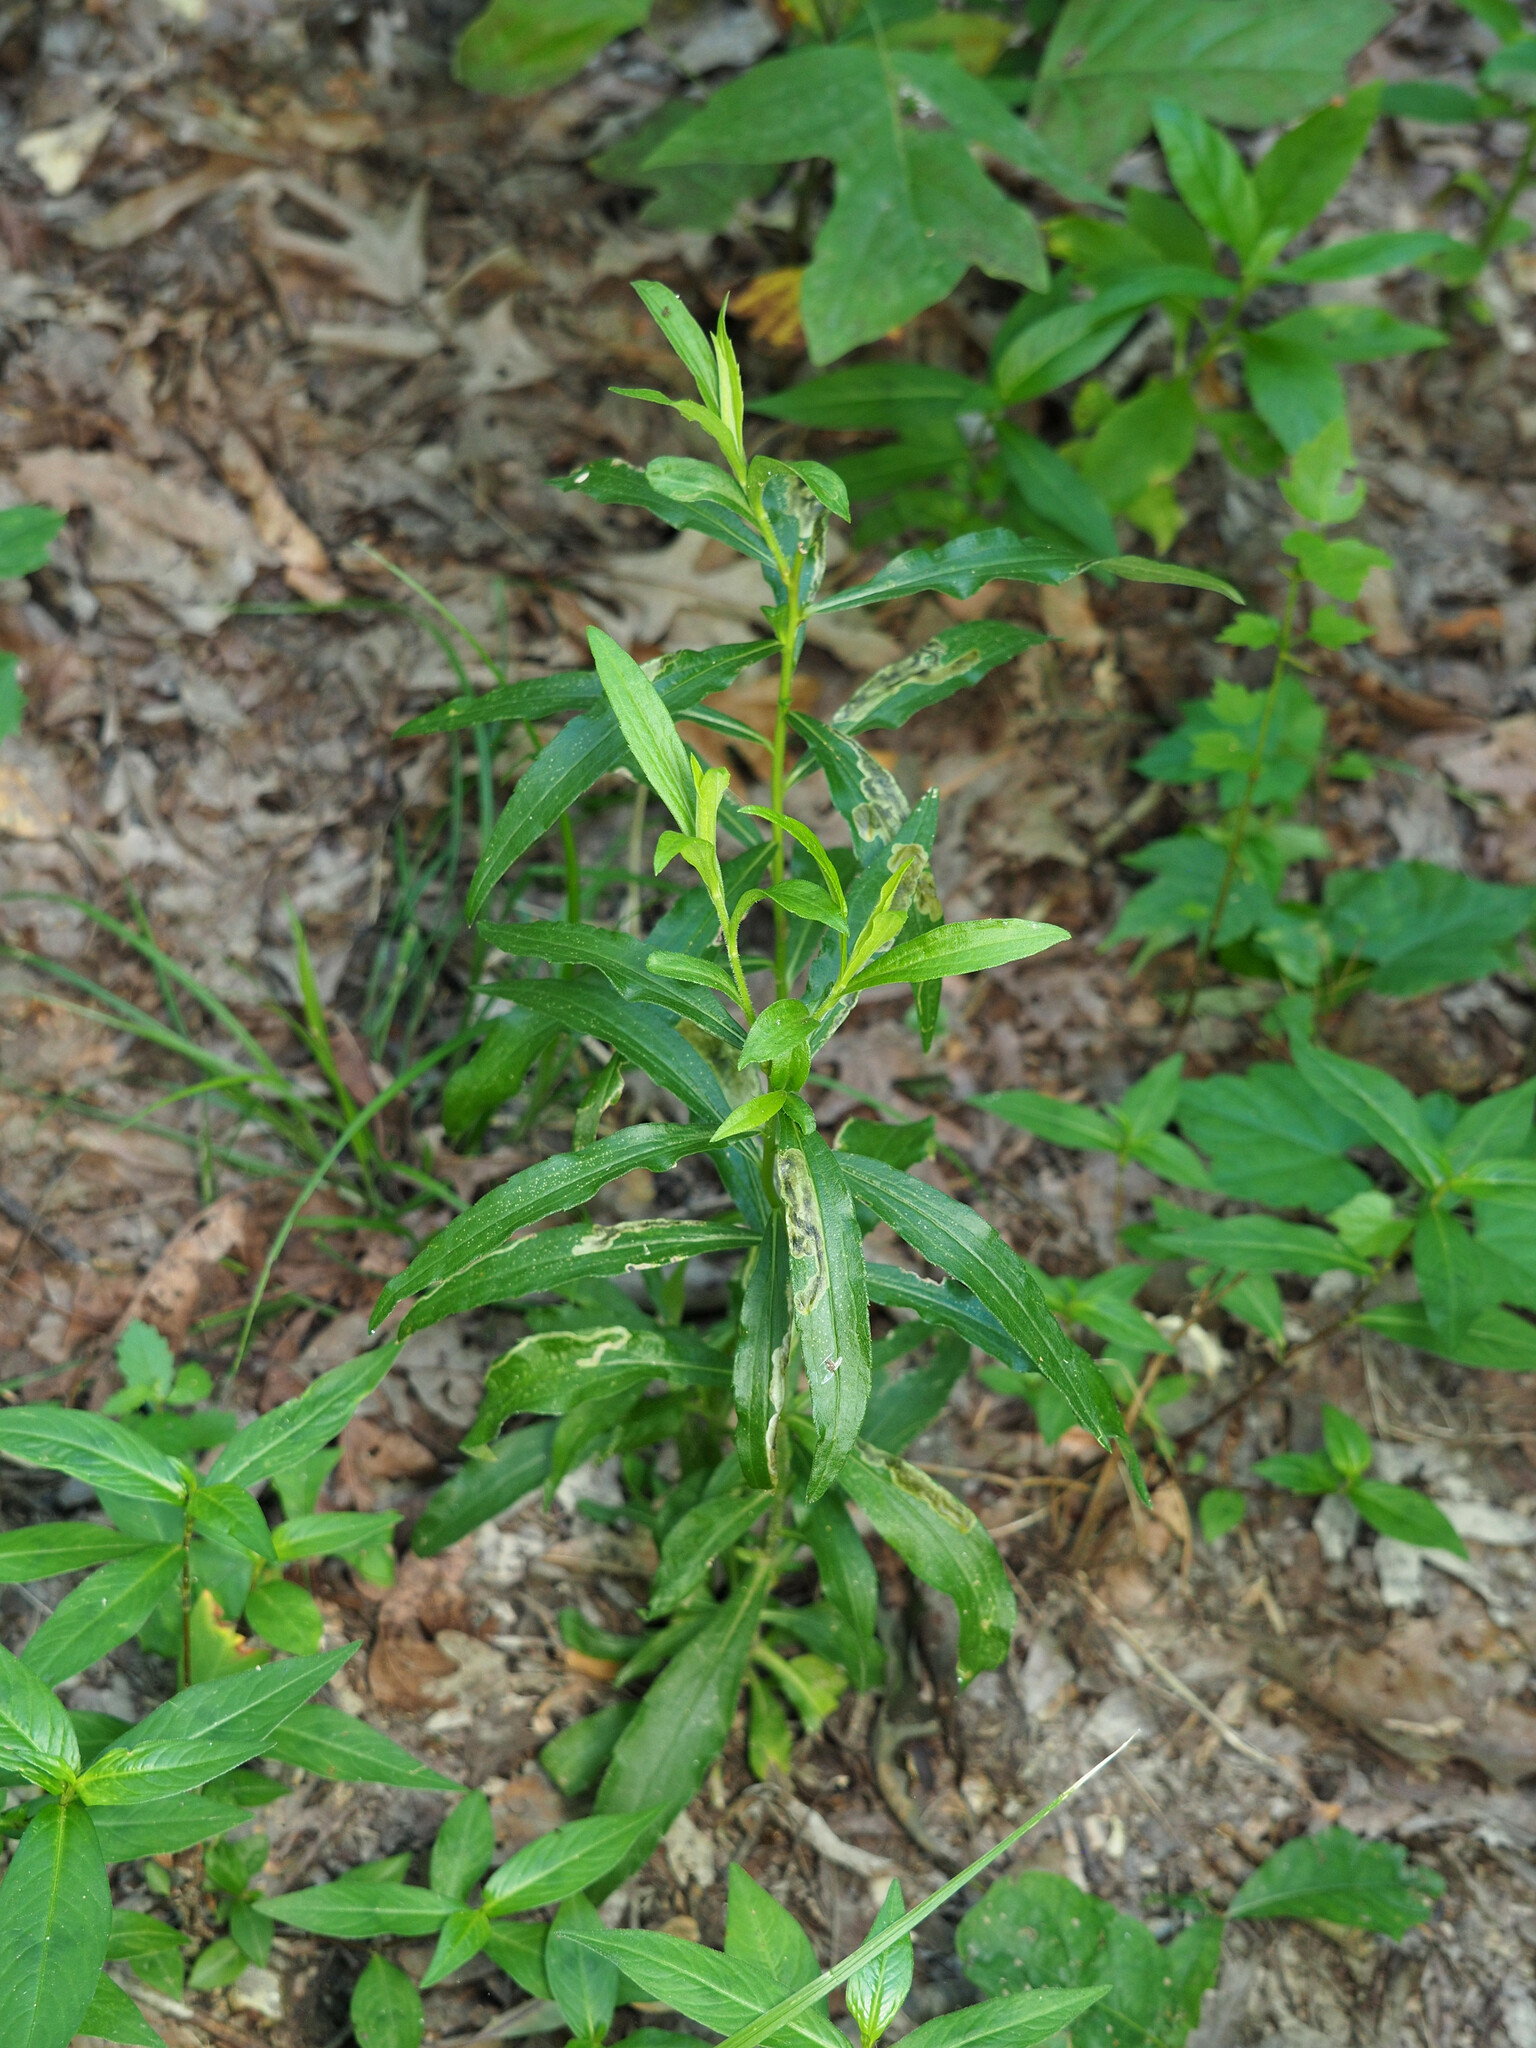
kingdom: Animalia
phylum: Arthropoda
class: Insecta
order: Diptera
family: Agromyzidae
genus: Nemorimyza
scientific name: Nemorimyza posticata
